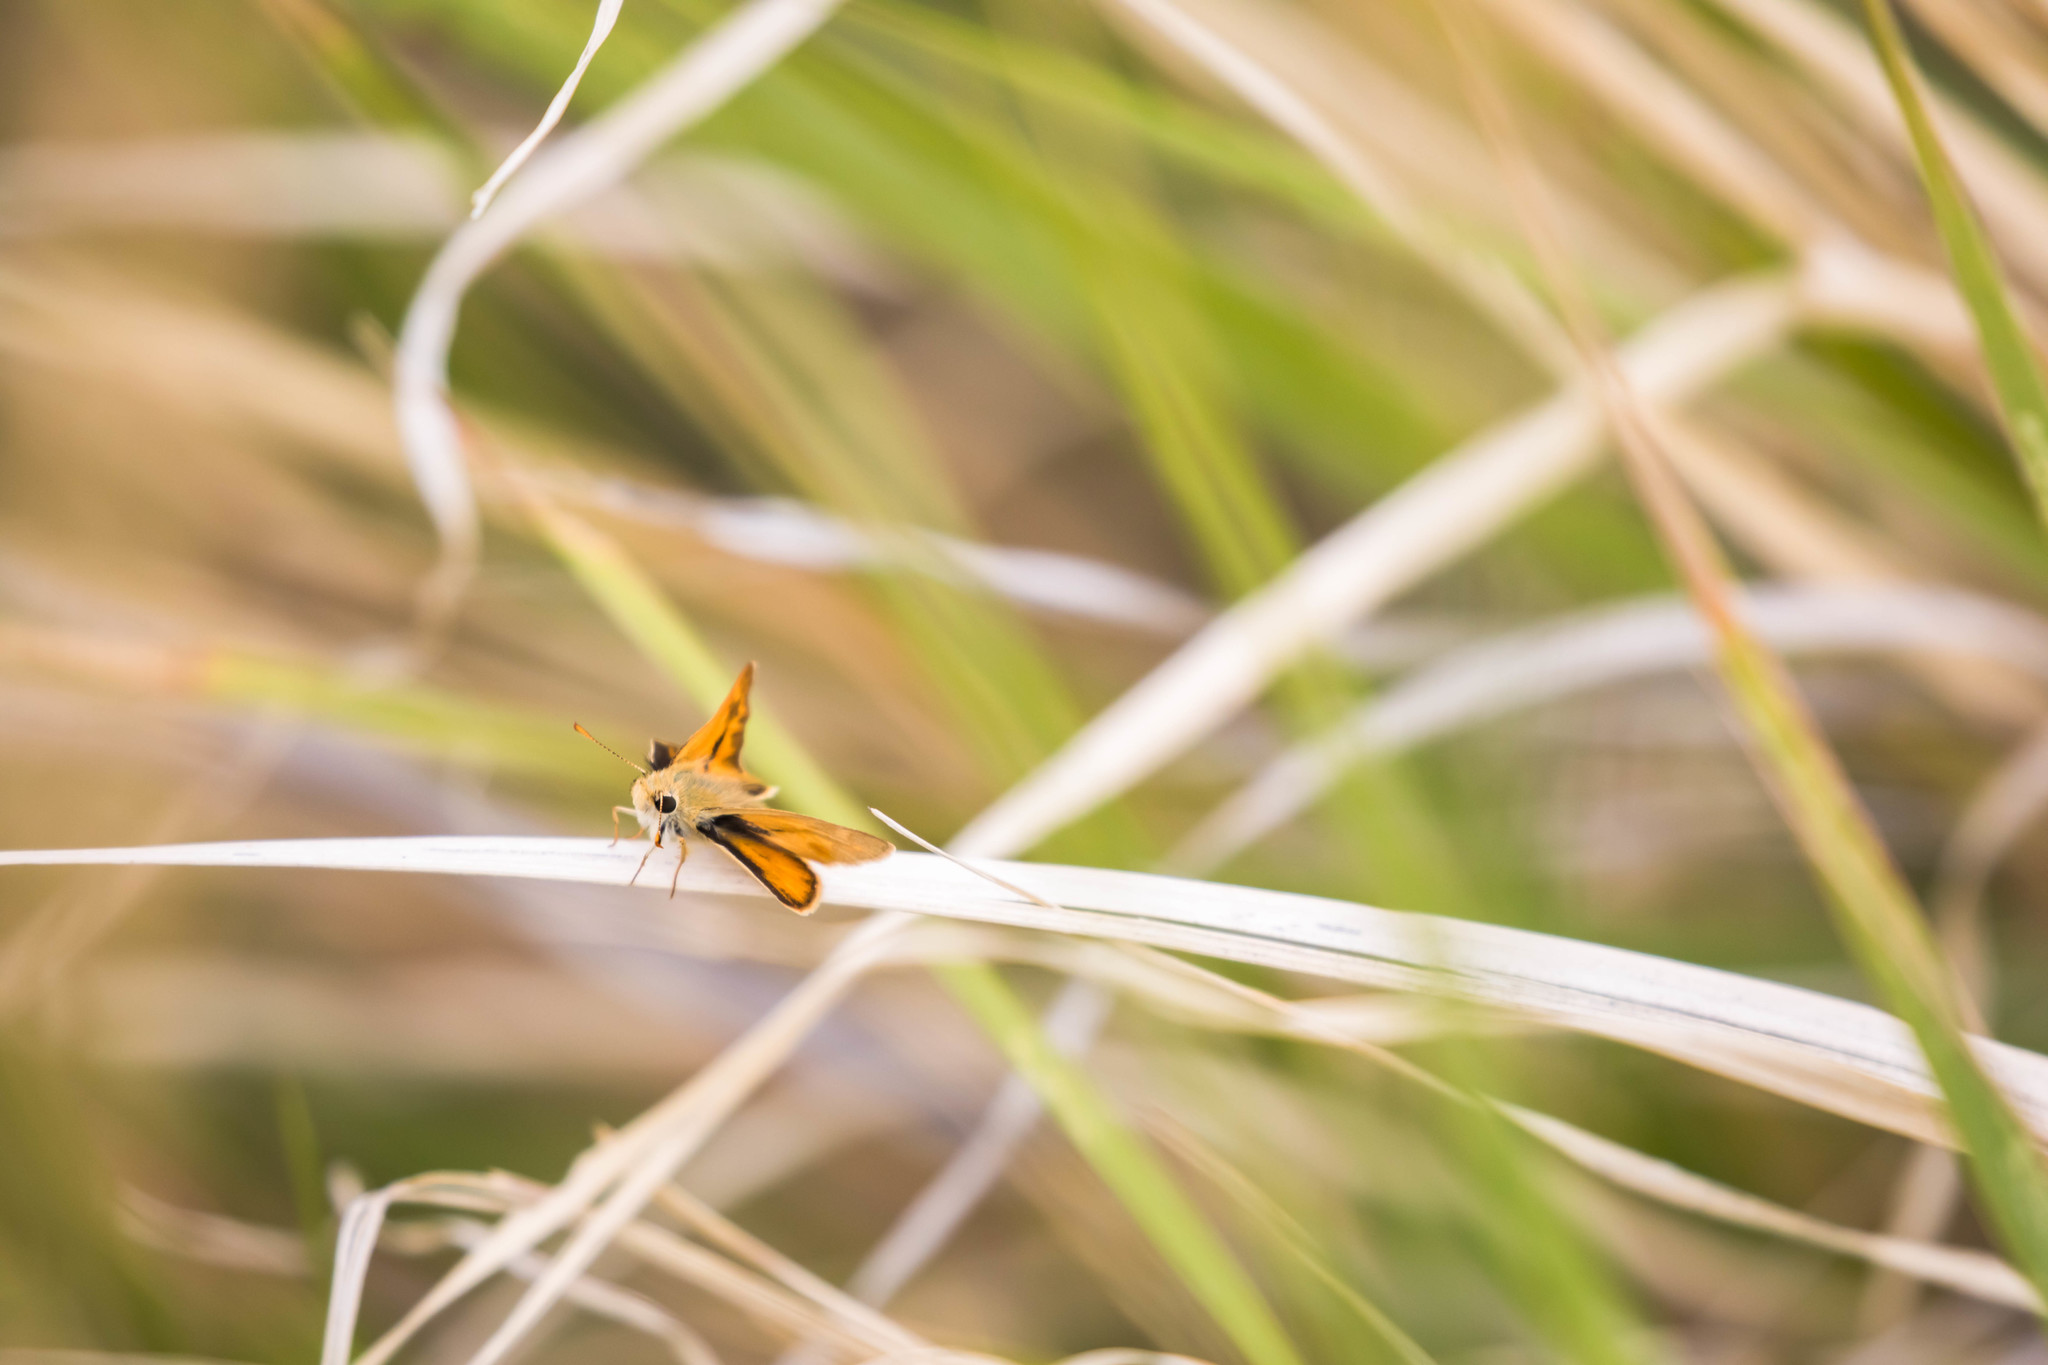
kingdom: Animalia
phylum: Arthropoda
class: Insecta
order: Lepidoptera
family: Hesperiidae
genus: Ochlodes
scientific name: Ochlodes sylvanoides
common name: Woodland skipper
